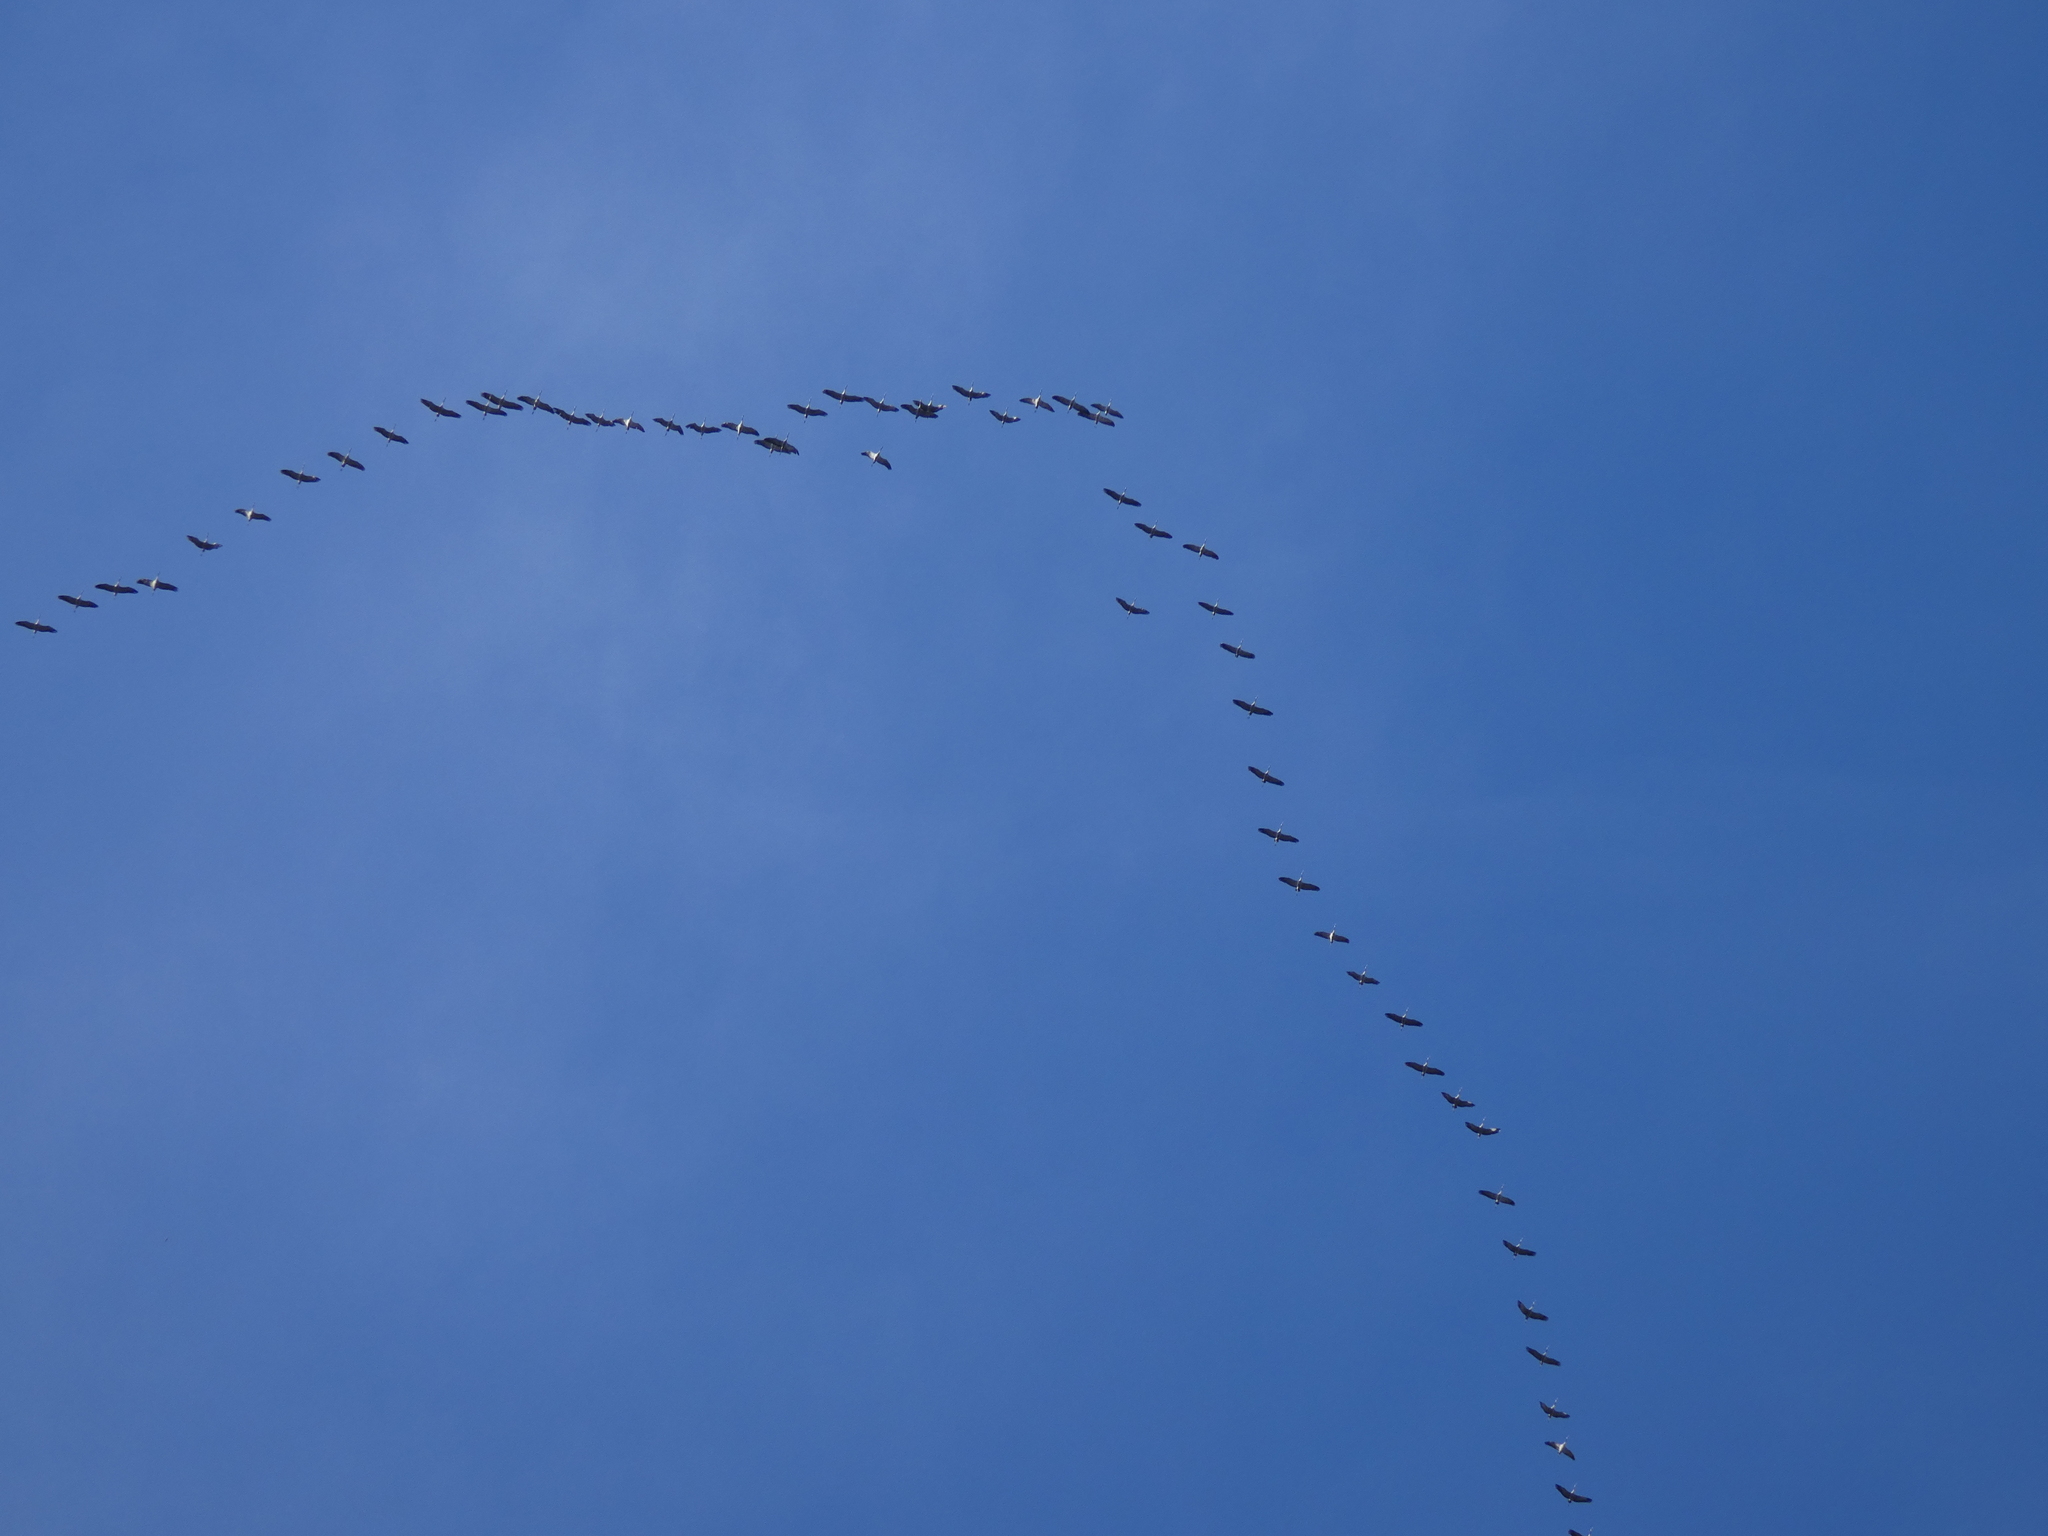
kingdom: Animalia
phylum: Chordata
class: Aves
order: Gruiformes
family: Gruidae
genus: Grus
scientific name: Grus grus
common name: Common crane
